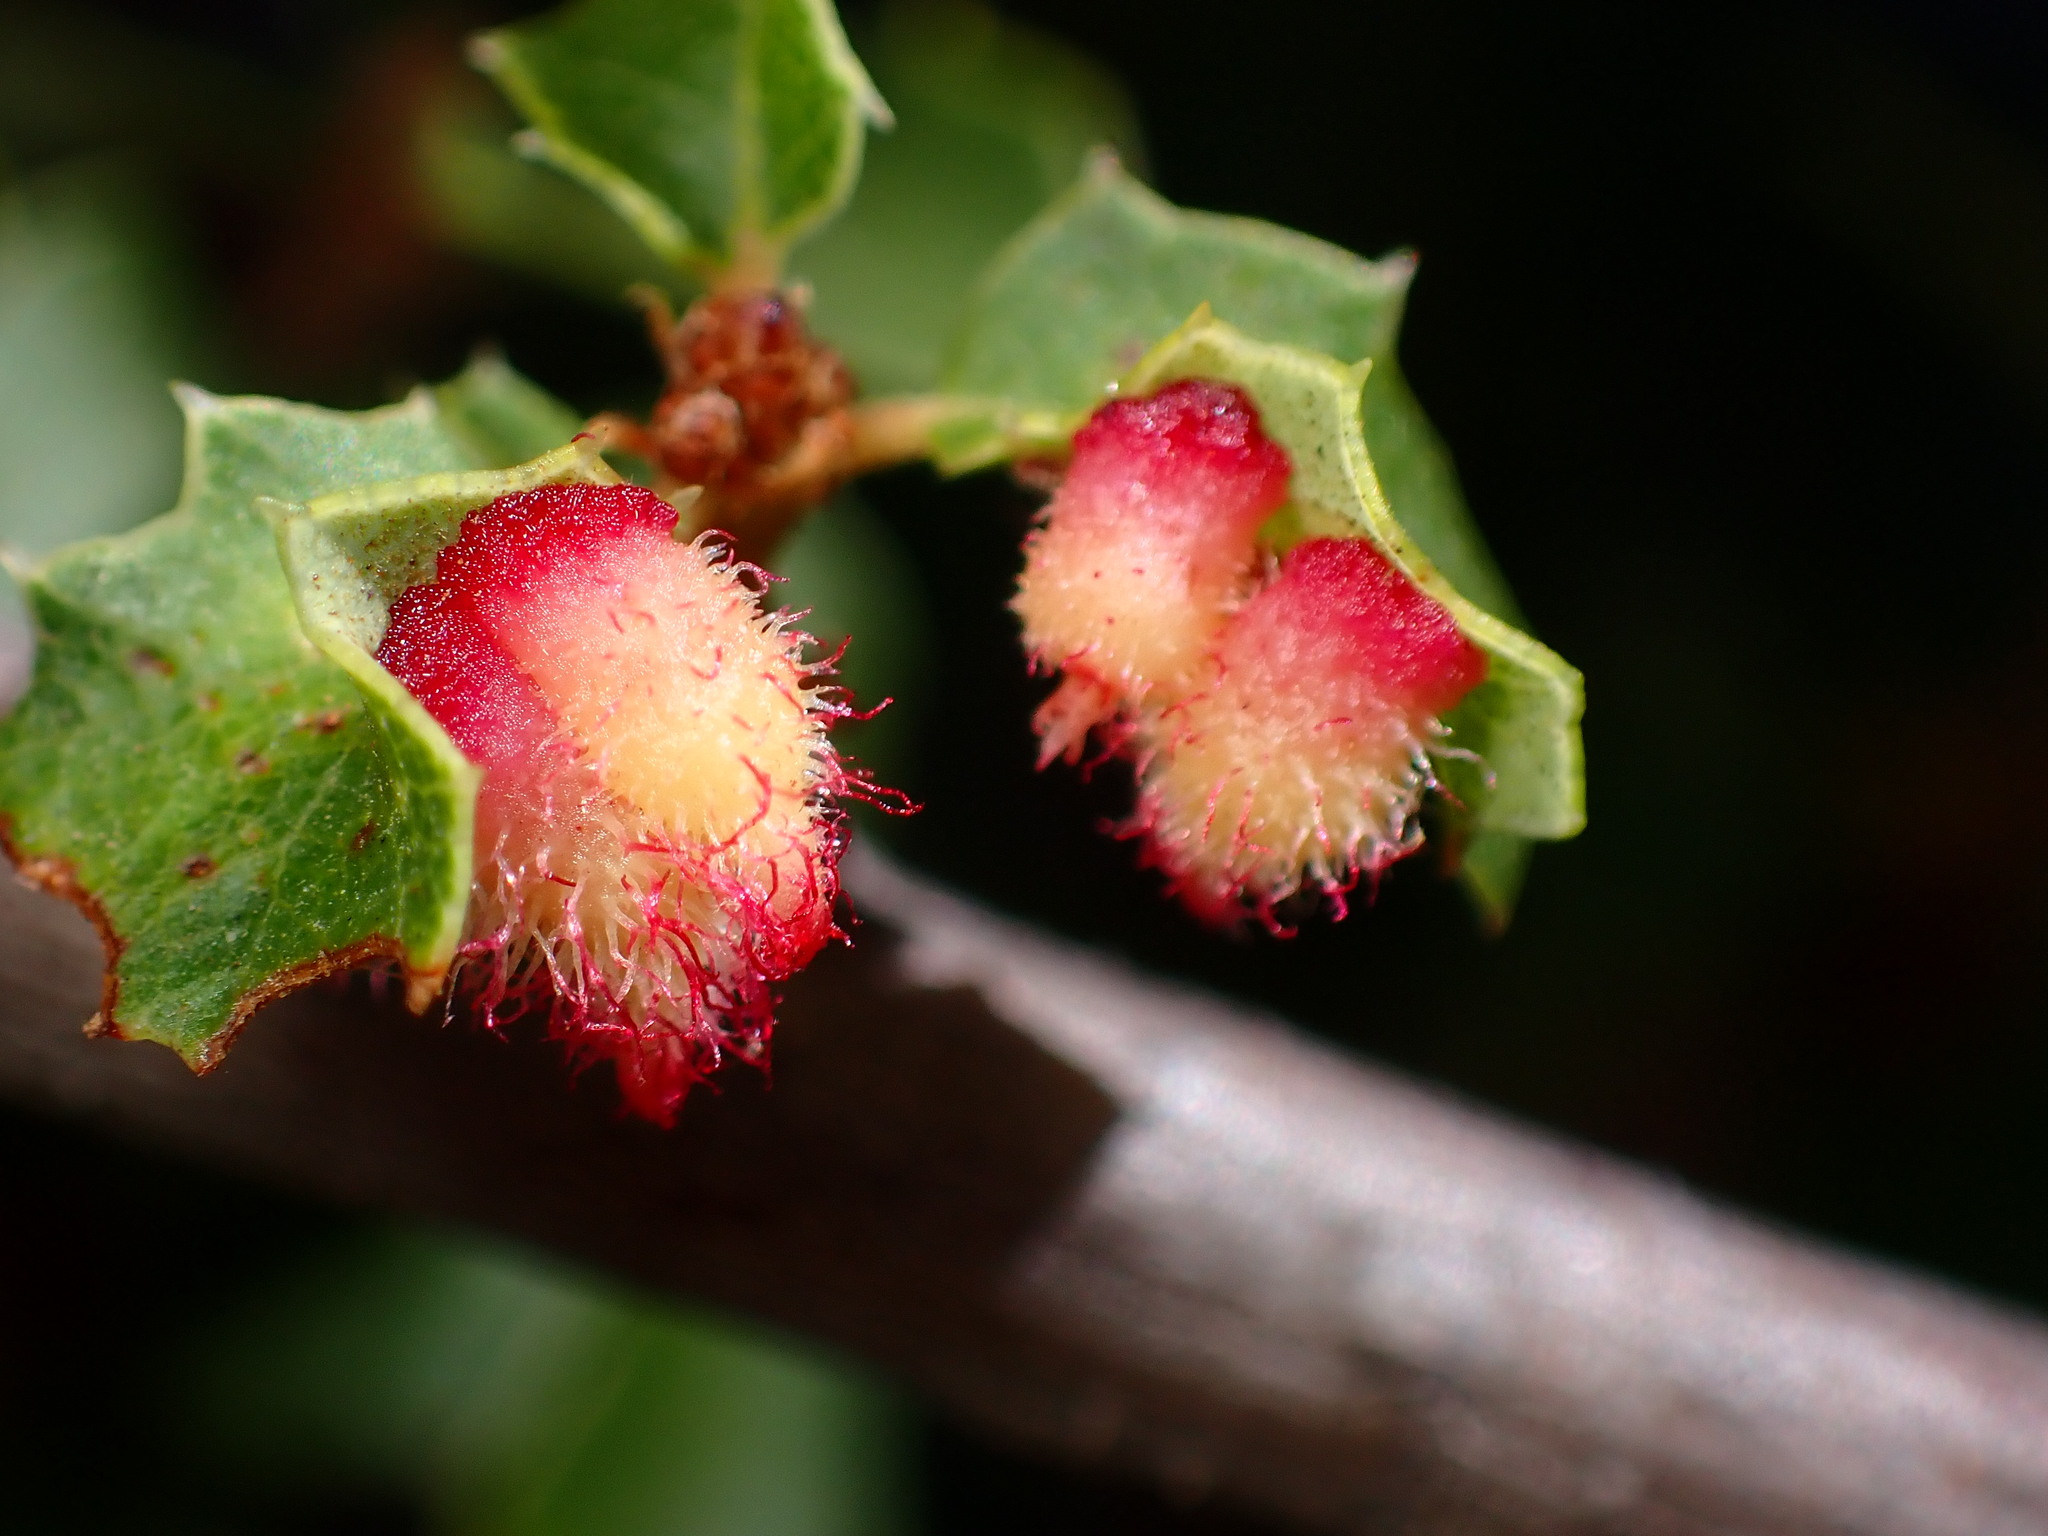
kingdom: Animalia
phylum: Arthropoda
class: Insecta
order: Hymenoptera
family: Cynipidae
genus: Andricus
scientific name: Andricus
